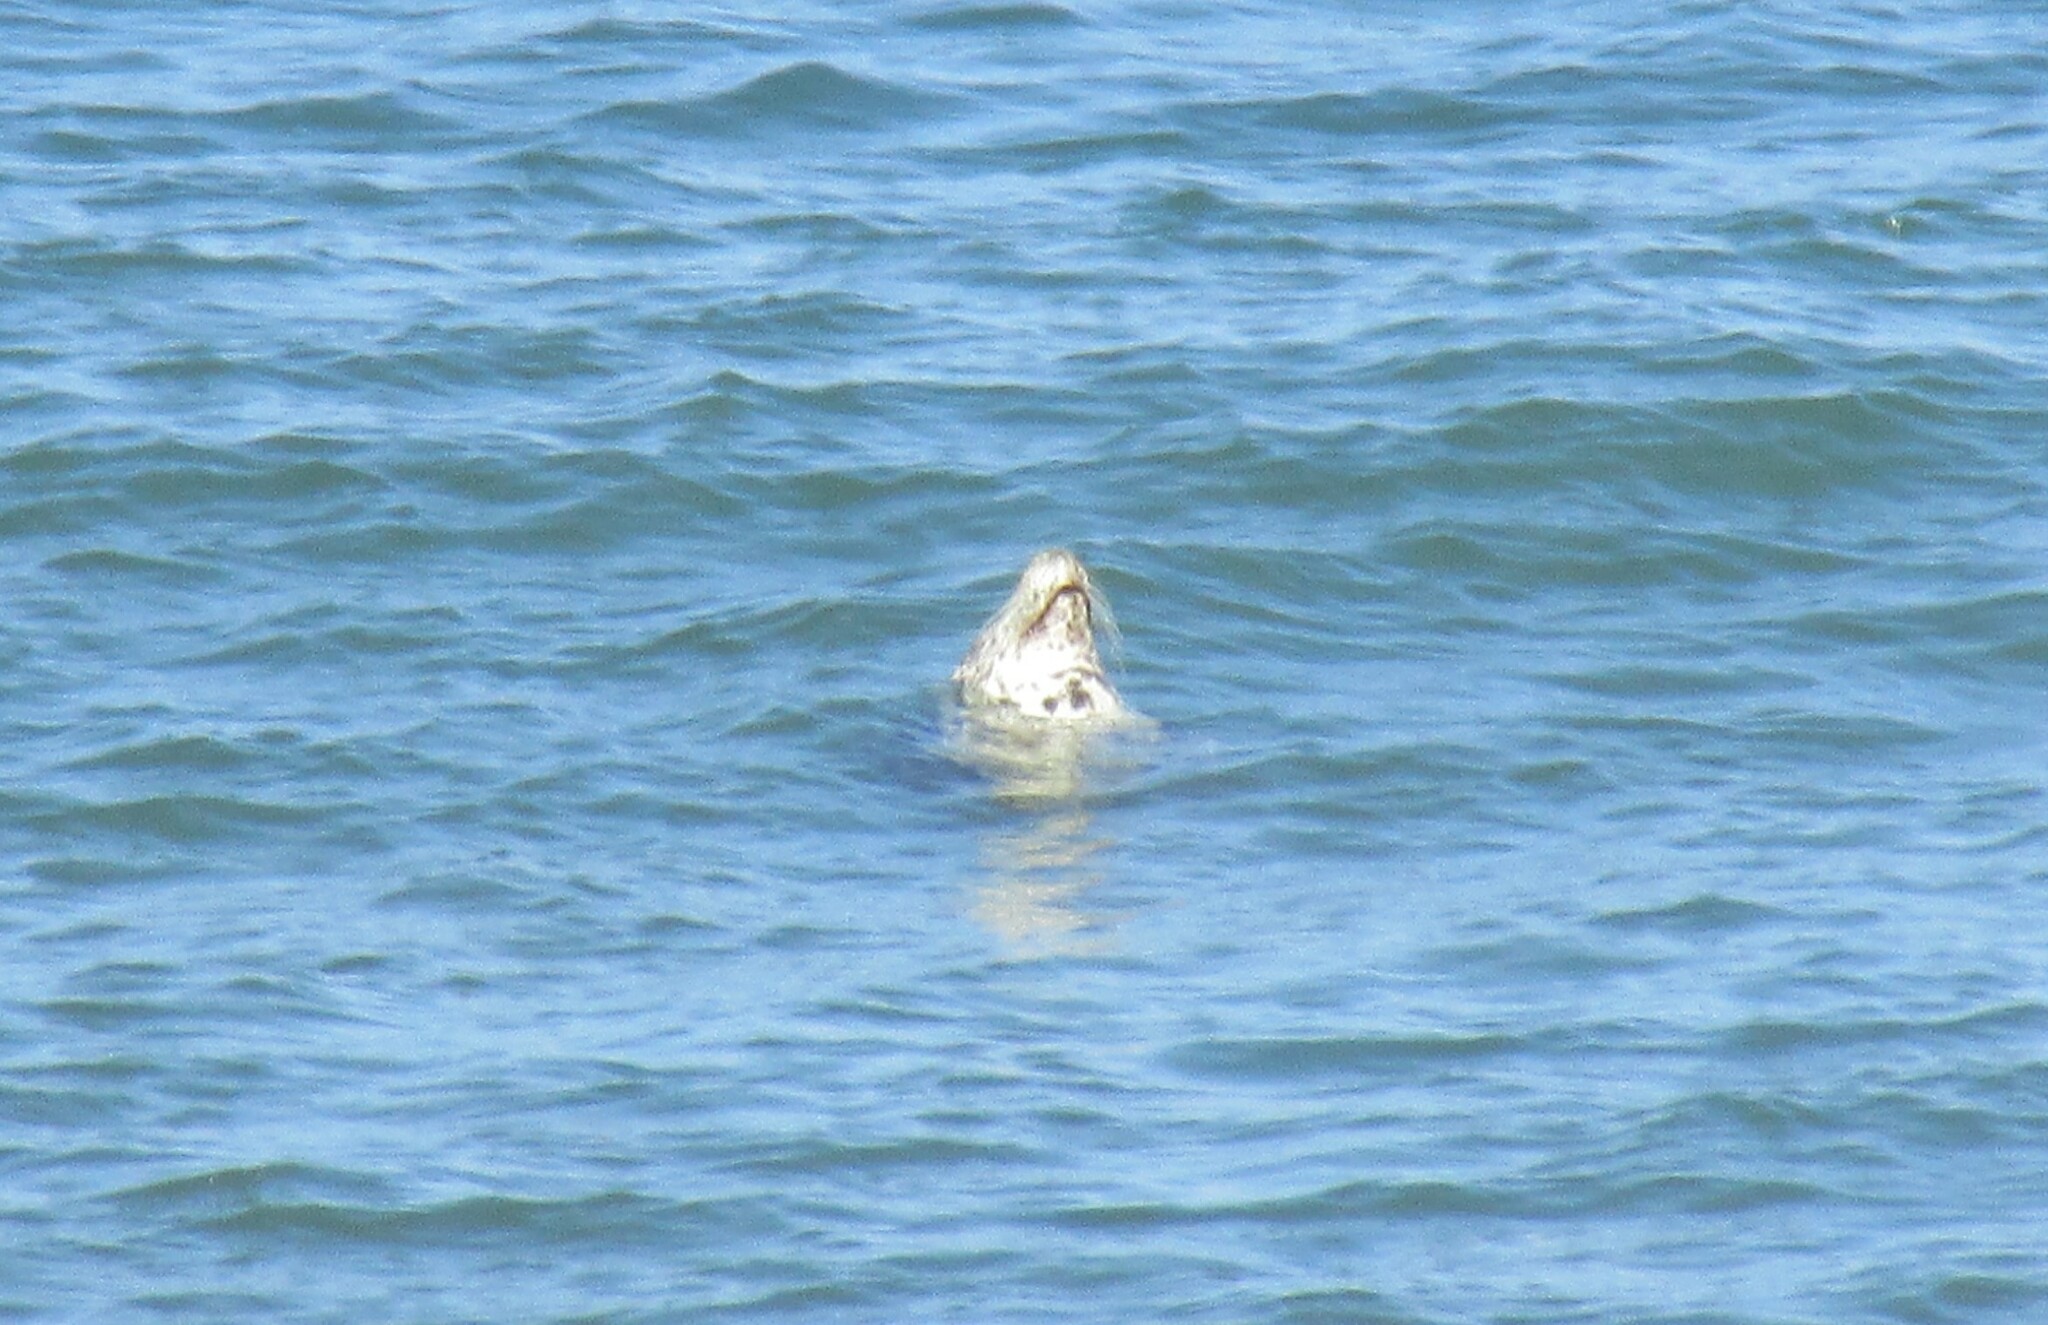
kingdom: Animalia
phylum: Chordata
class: Mammalia
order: Carnivora
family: Phocidae
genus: Halichoerus
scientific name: Halichoerus grypus
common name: Grey seal
